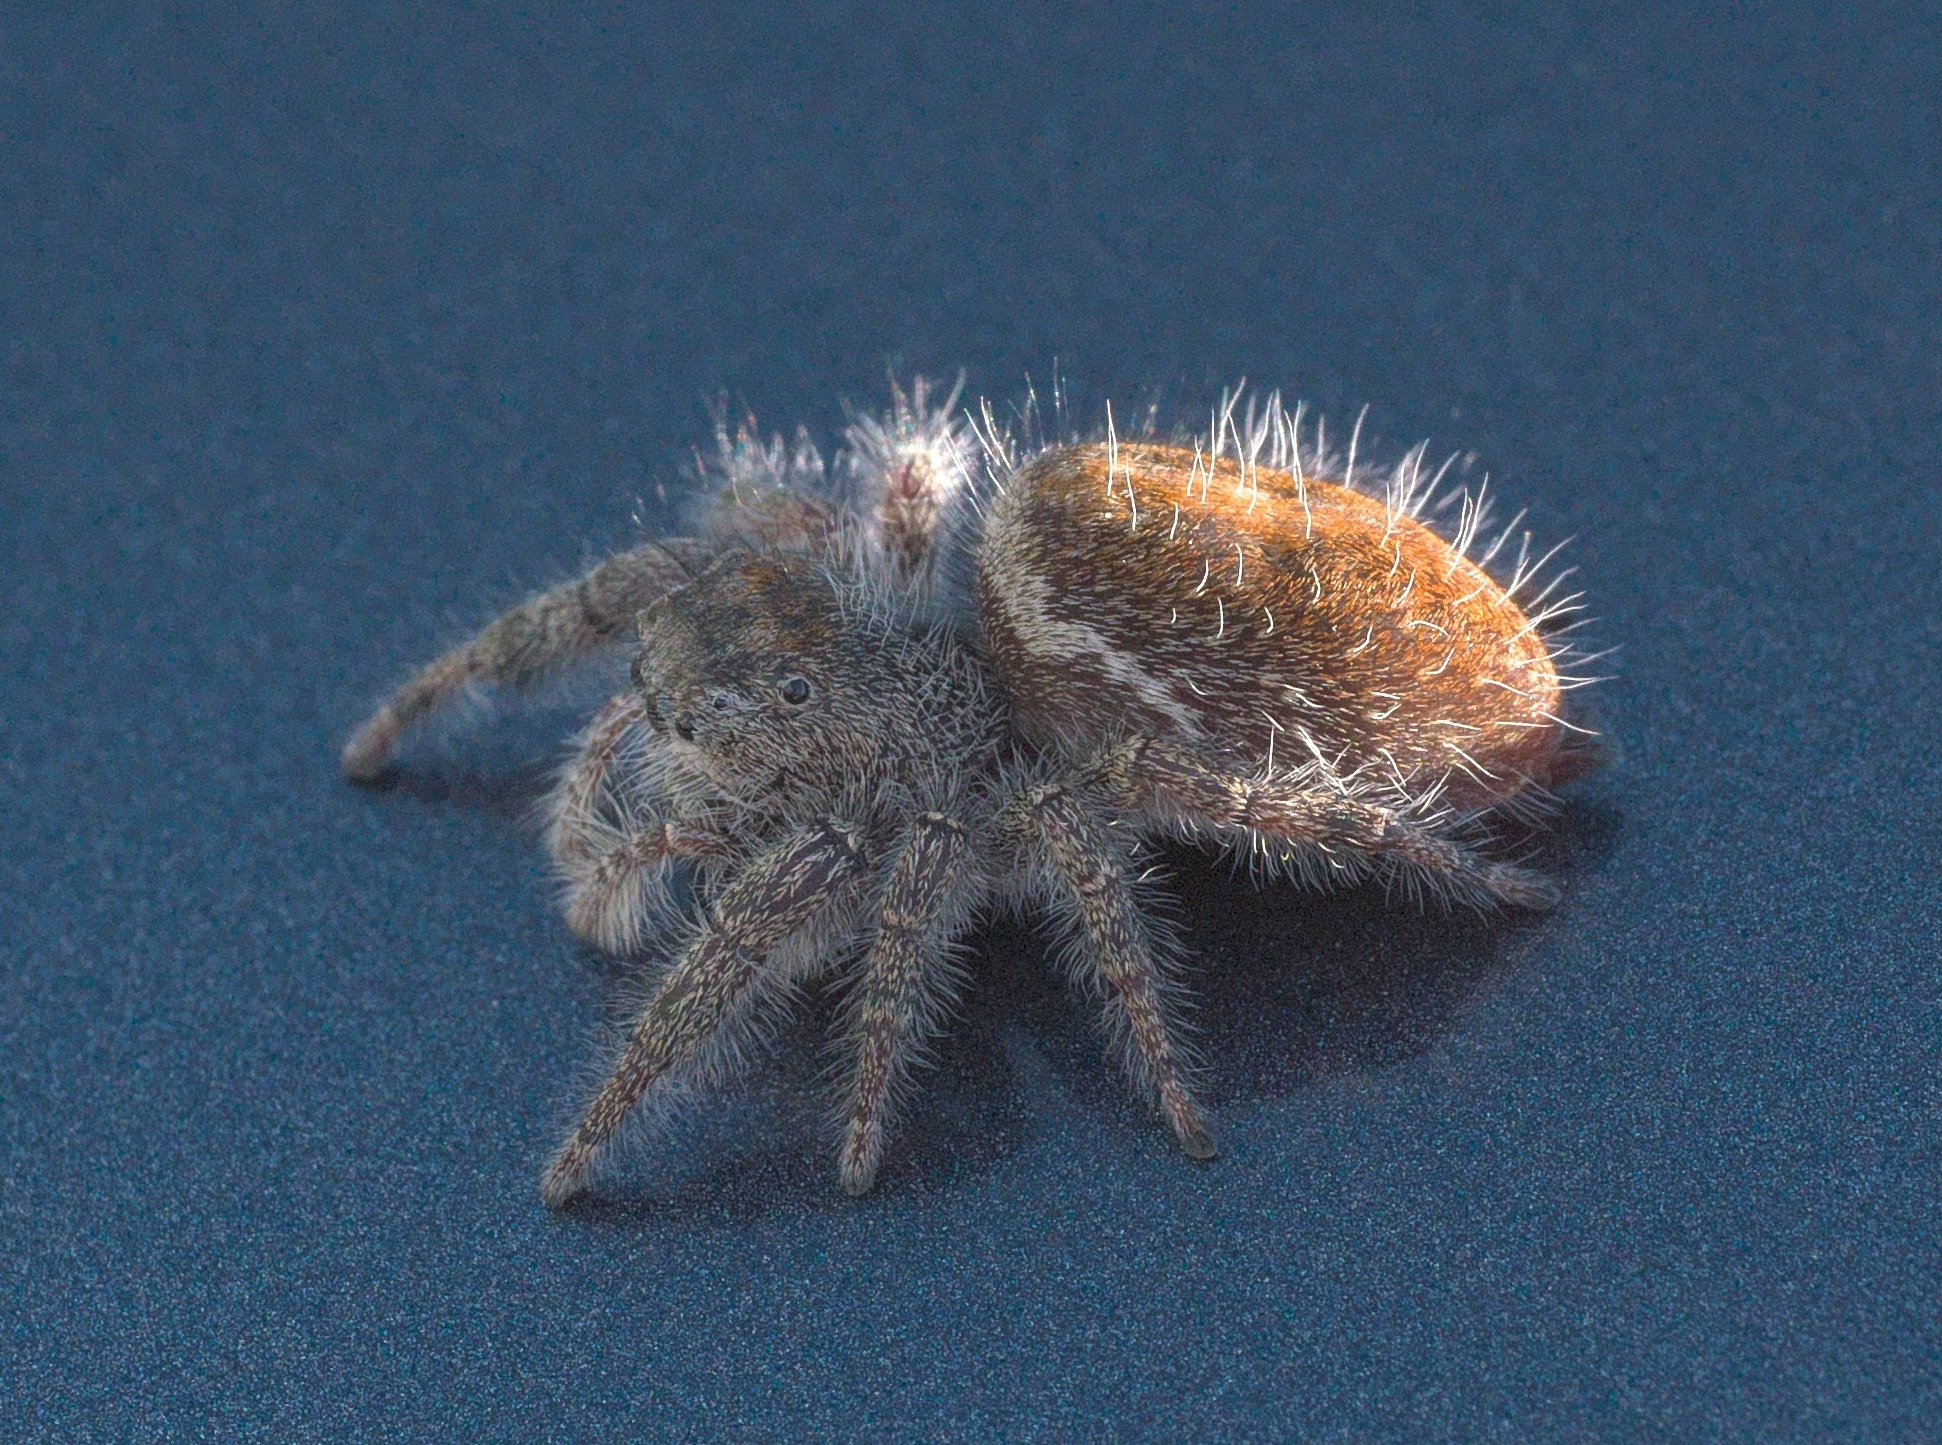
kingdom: Animalia
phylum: Arthropoda
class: Arachnida
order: Araneae
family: Salticidae
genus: Phidippus
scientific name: Phidippus princeps
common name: Grayish jumping spider
